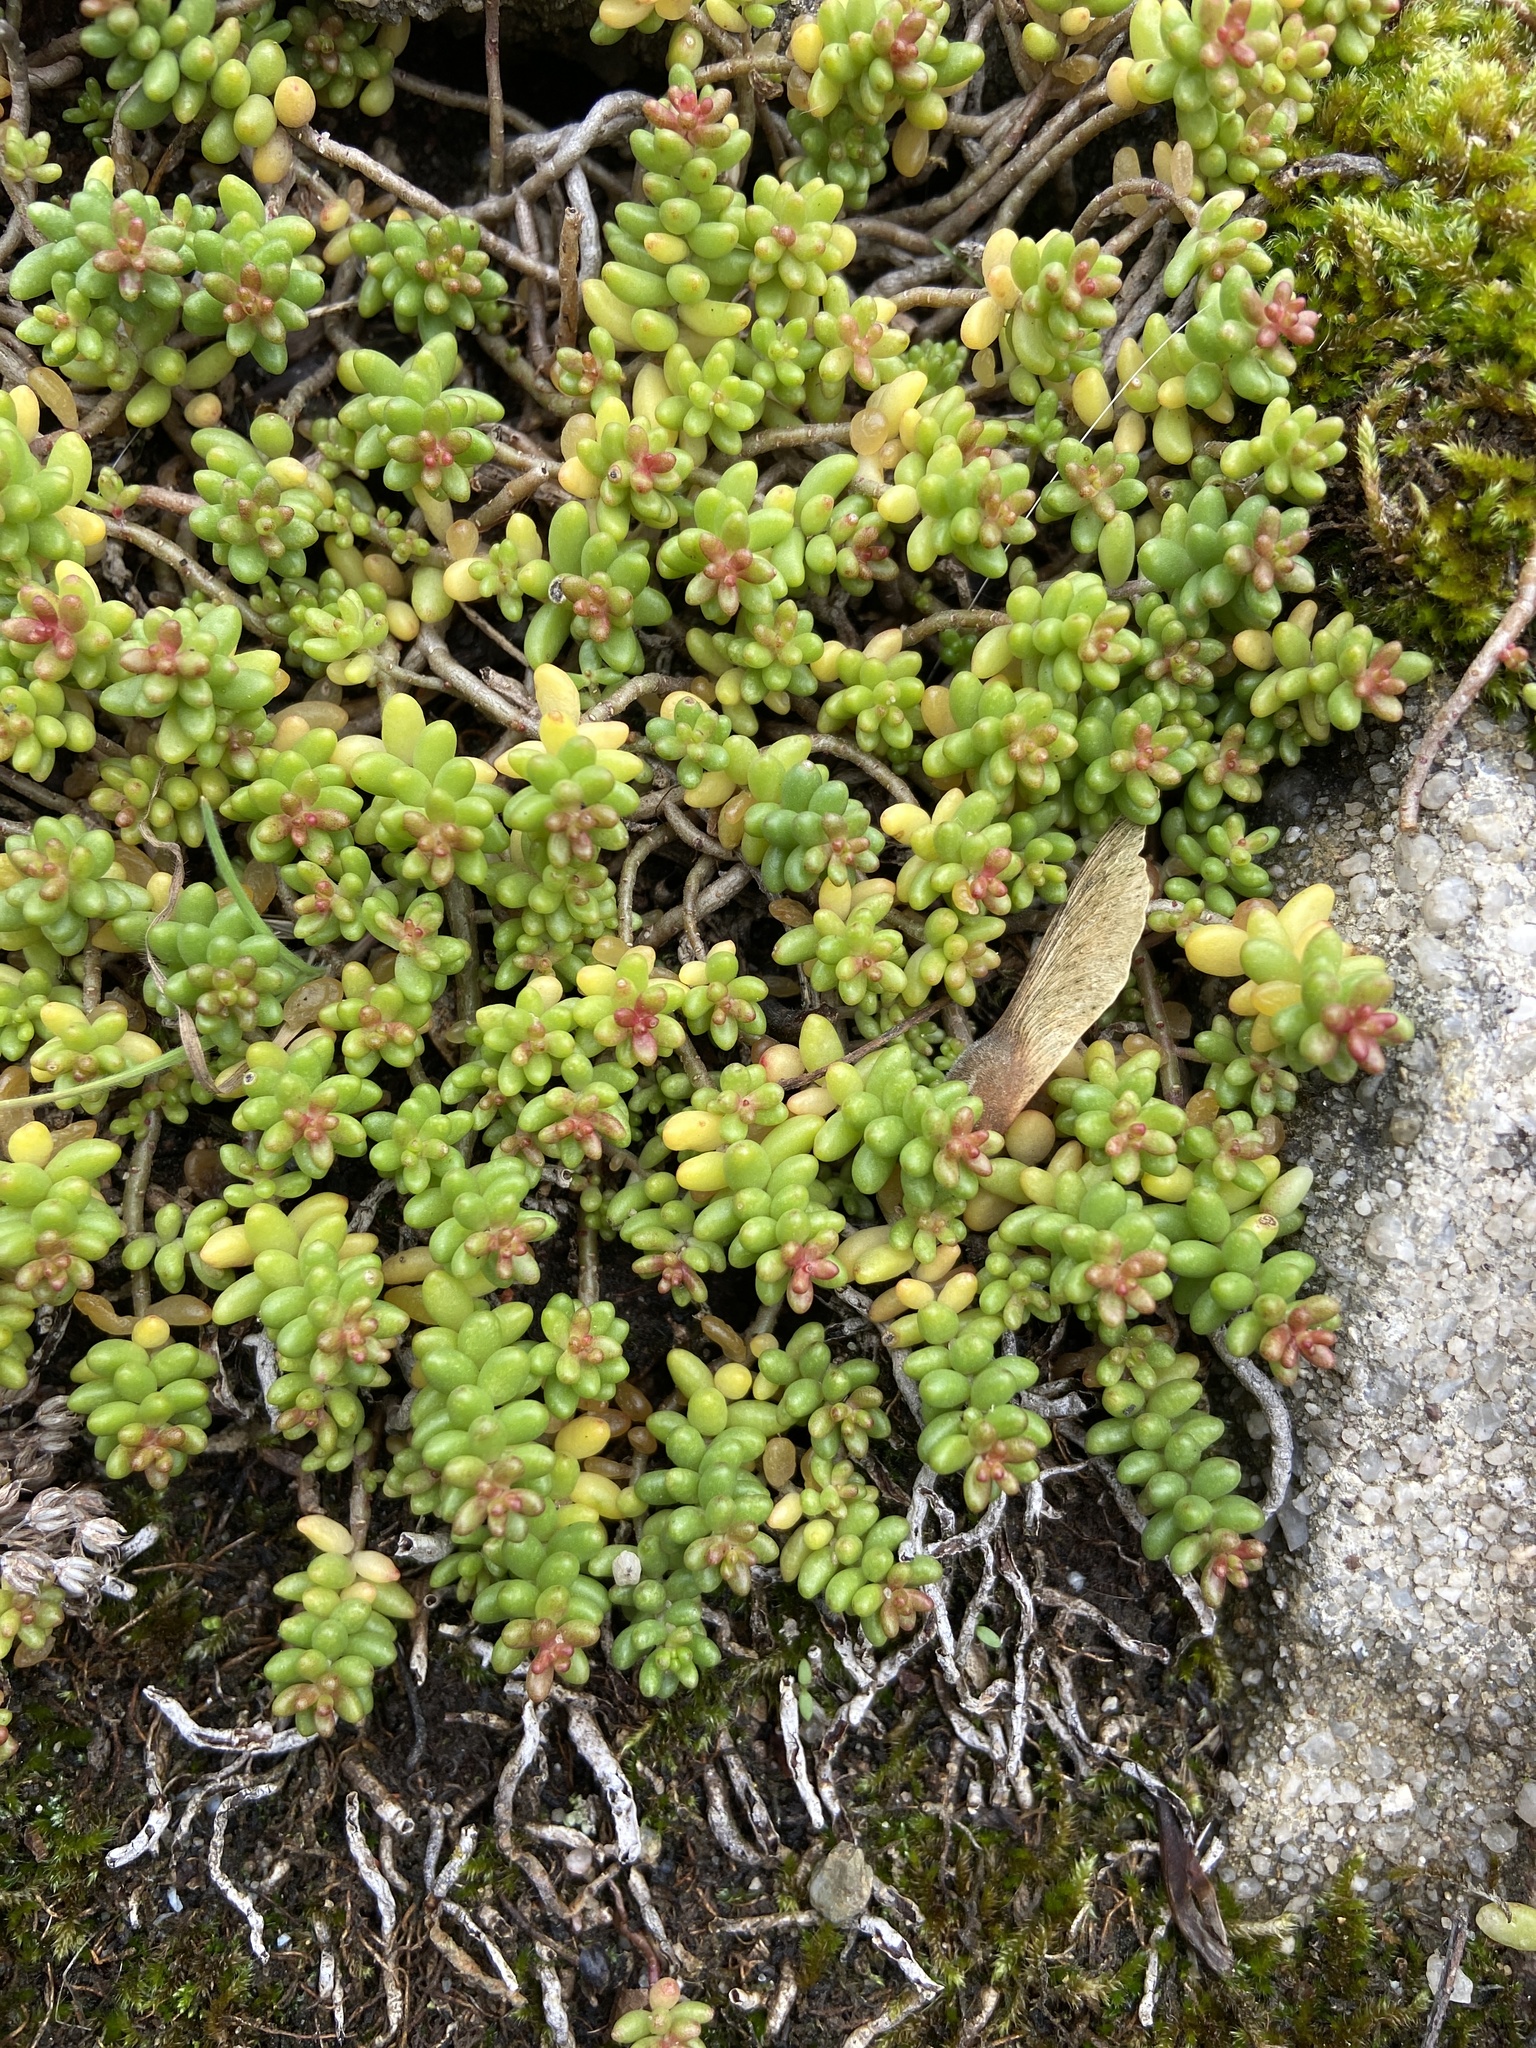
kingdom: Plantae
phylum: Tracheophyta
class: Magnoliopsida
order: Saxifragales
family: Crassulaceae
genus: Sedum
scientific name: Sedum album
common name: White stonecrop
